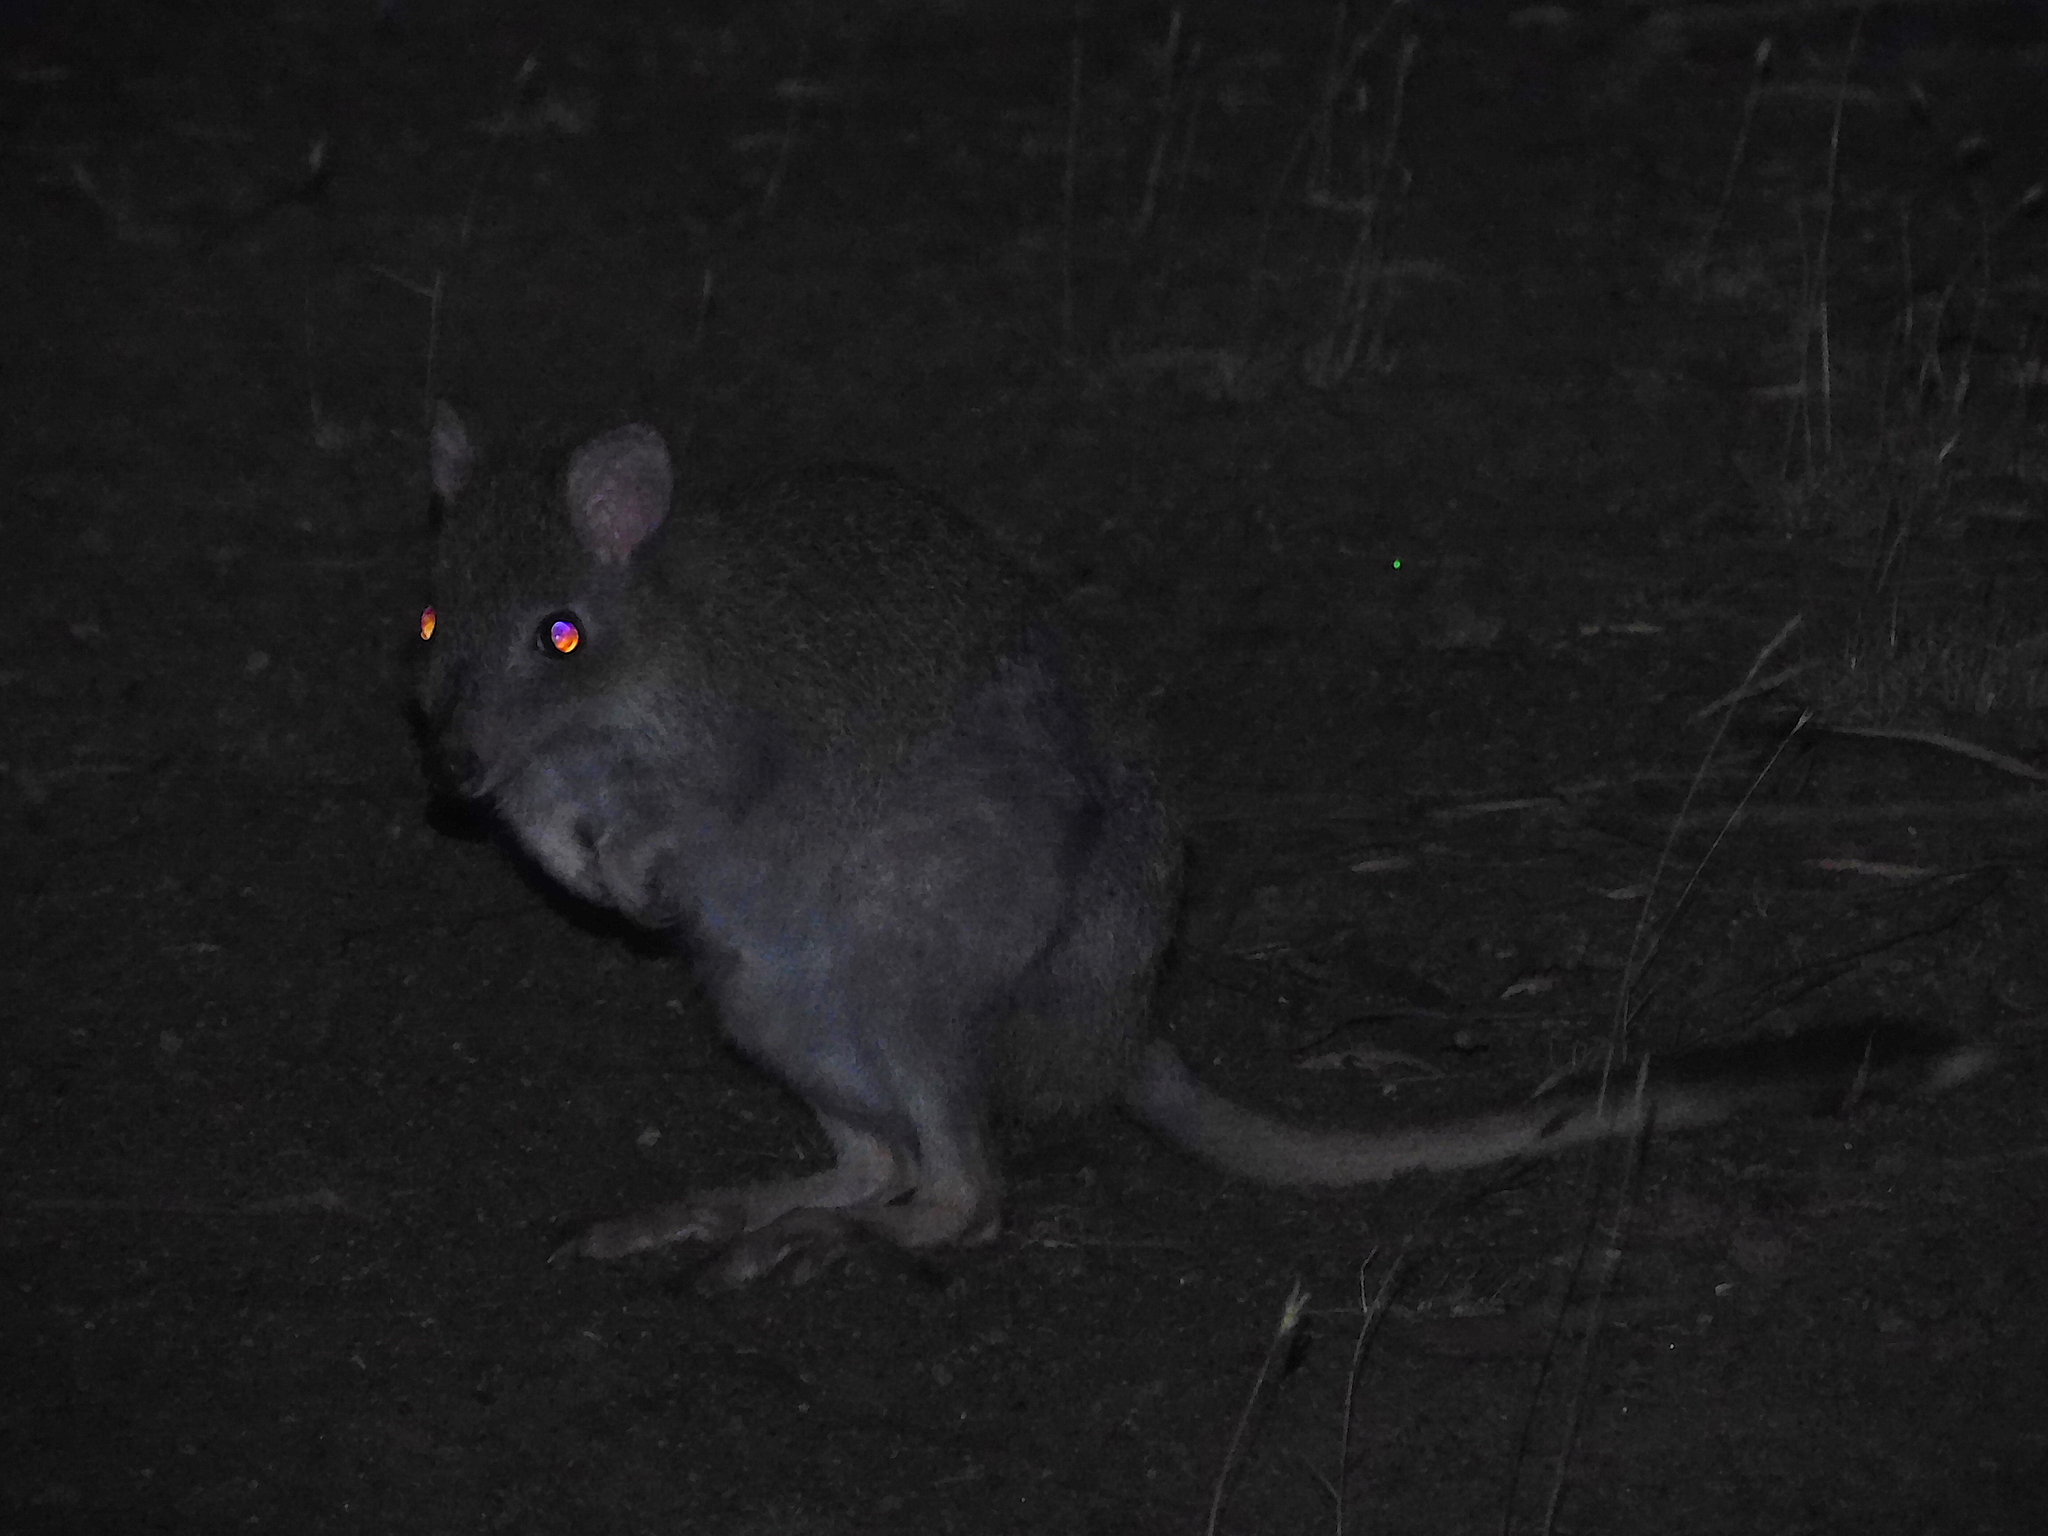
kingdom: Animalia
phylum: Chordata
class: Mammalia
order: Diprotodontia
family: Potoroidae
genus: Bettongia
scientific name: Bettongia gaimardi
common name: Eastern bettong
